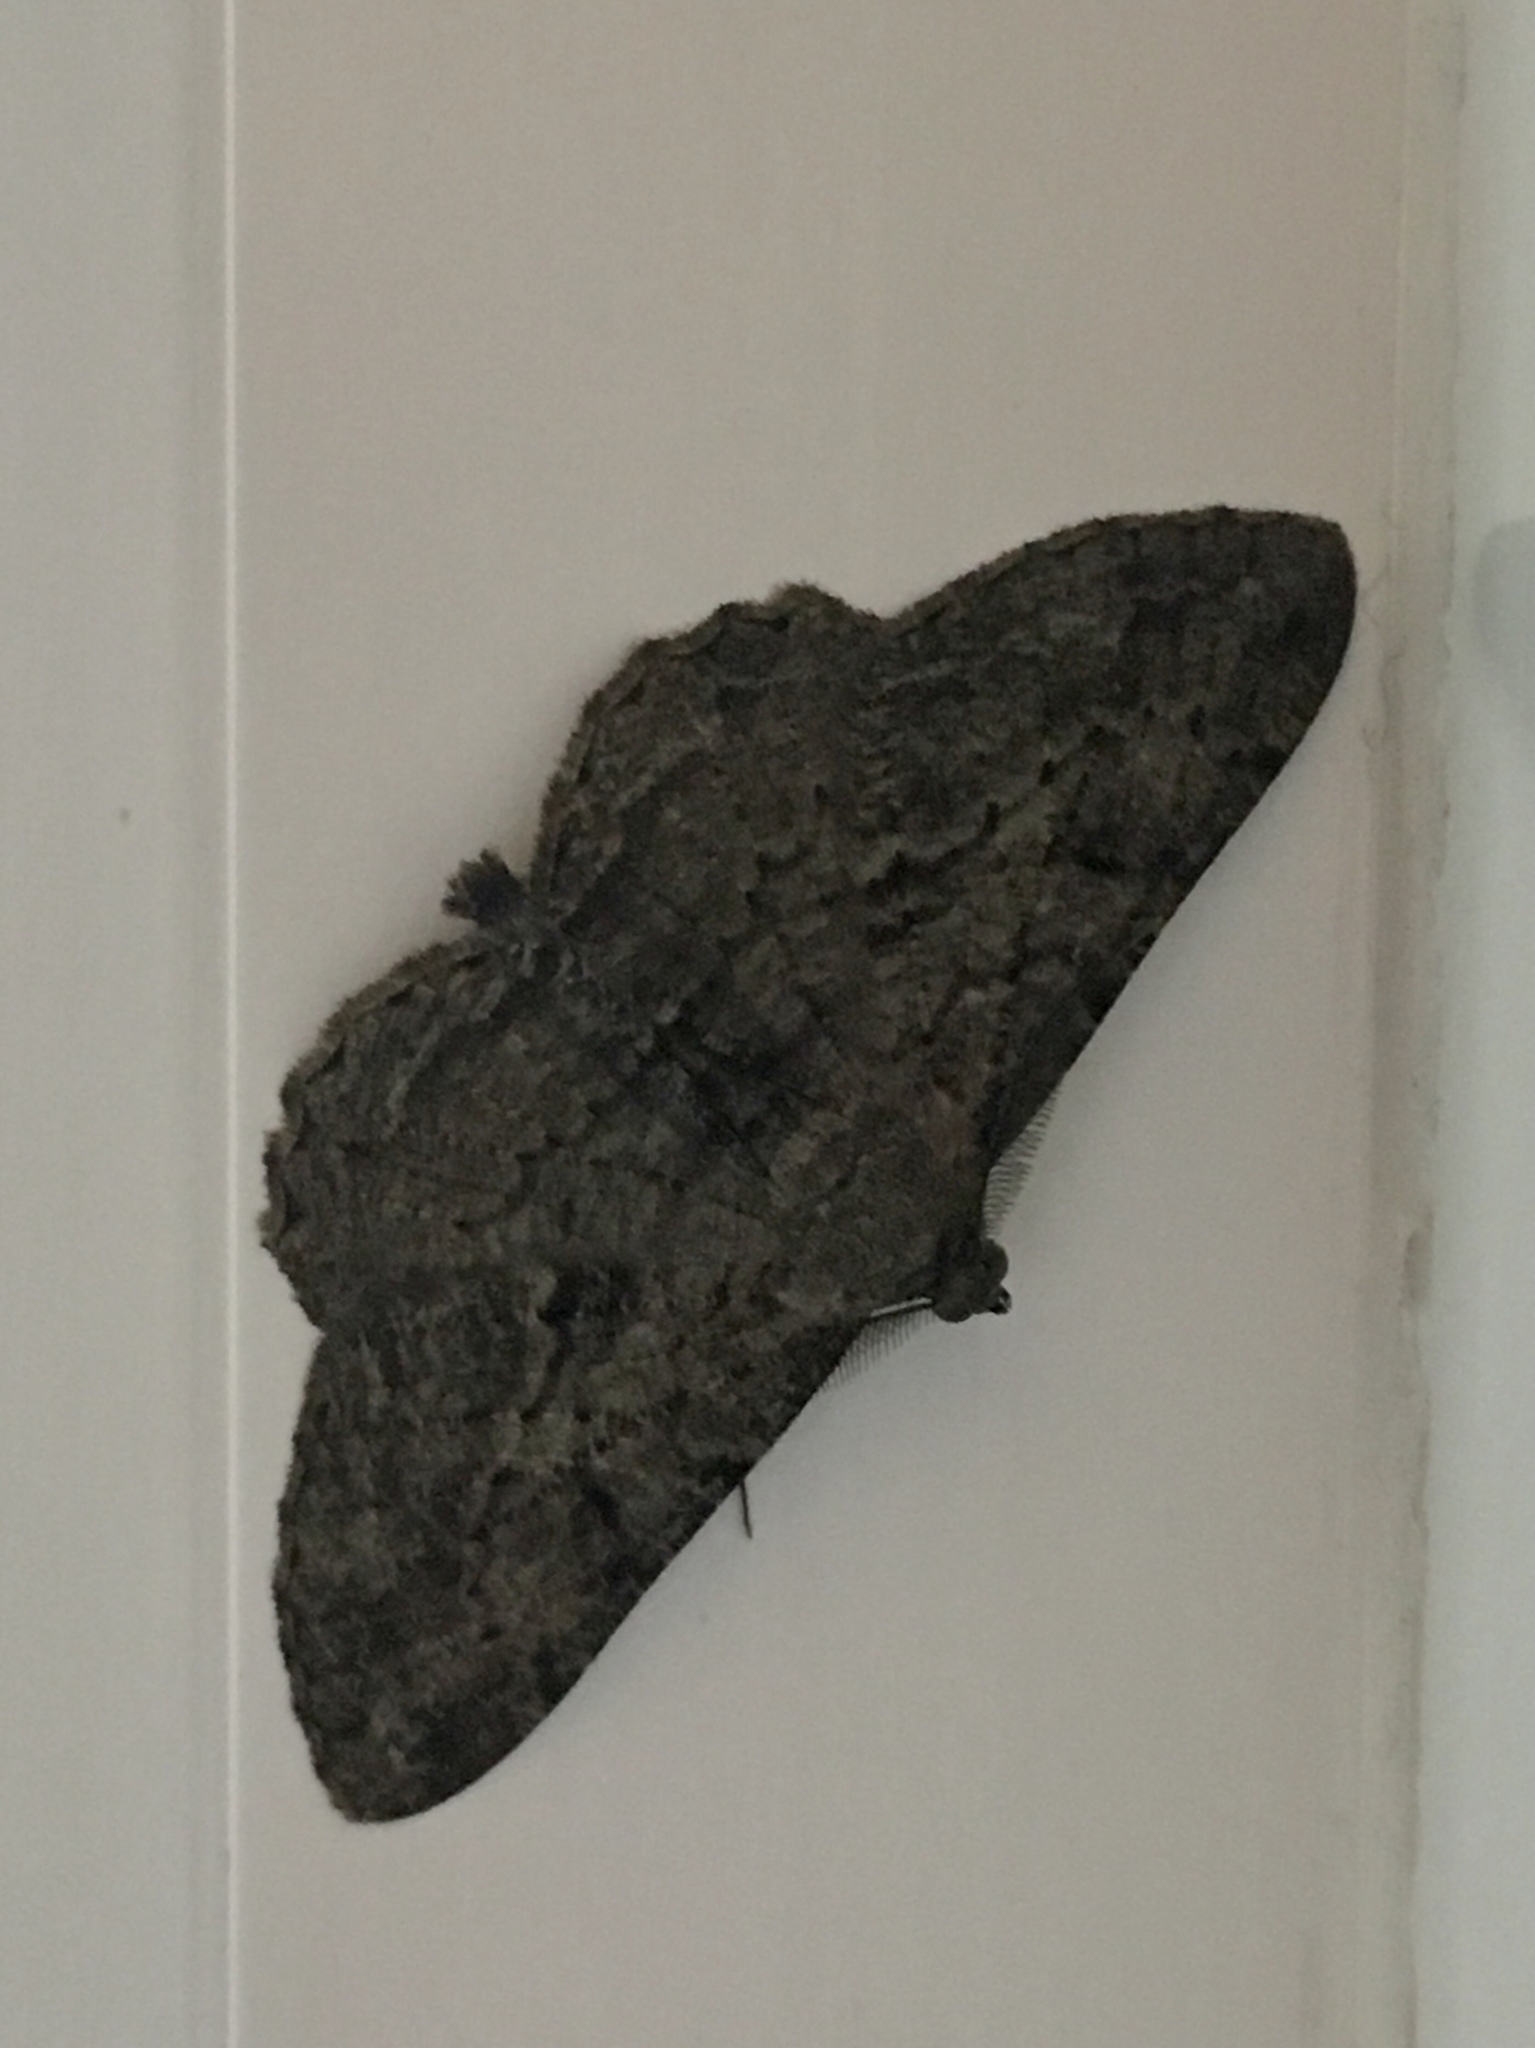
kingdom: Animalia
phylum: Arthropoda
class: Insecta
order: Lepidoptera
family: Geometridae
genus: Peribatodes
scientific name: Peribatodes rhomboidaria
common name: Willow beauty
